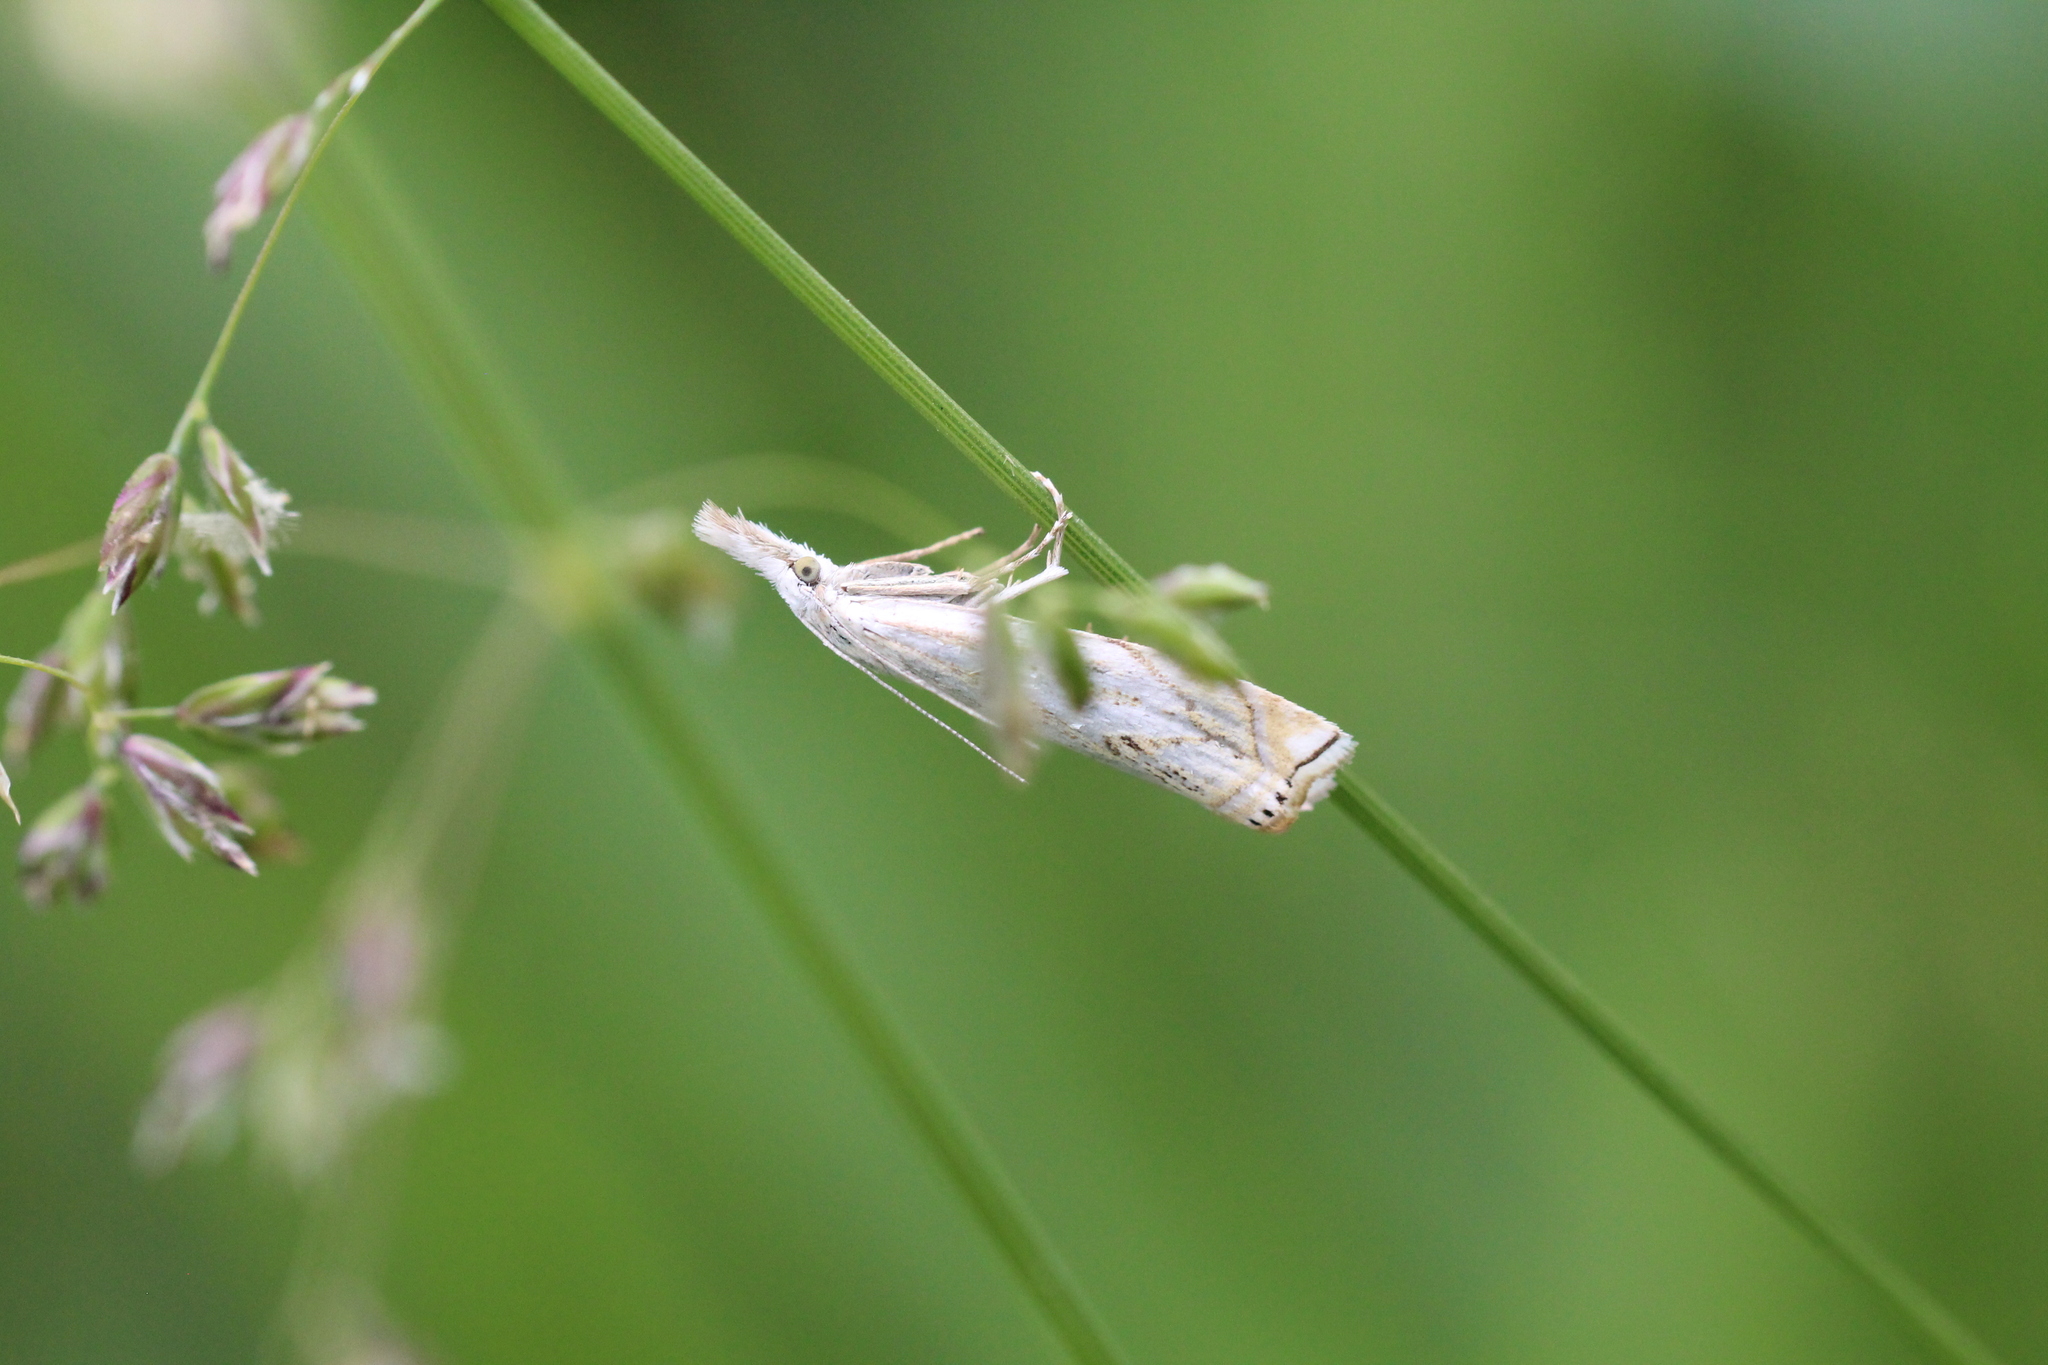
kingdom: Animalia
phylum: Arthropoda
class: Insecta
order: Lepidoptera
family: Crambidae
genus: Crambus
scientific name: Crambus nemorella
